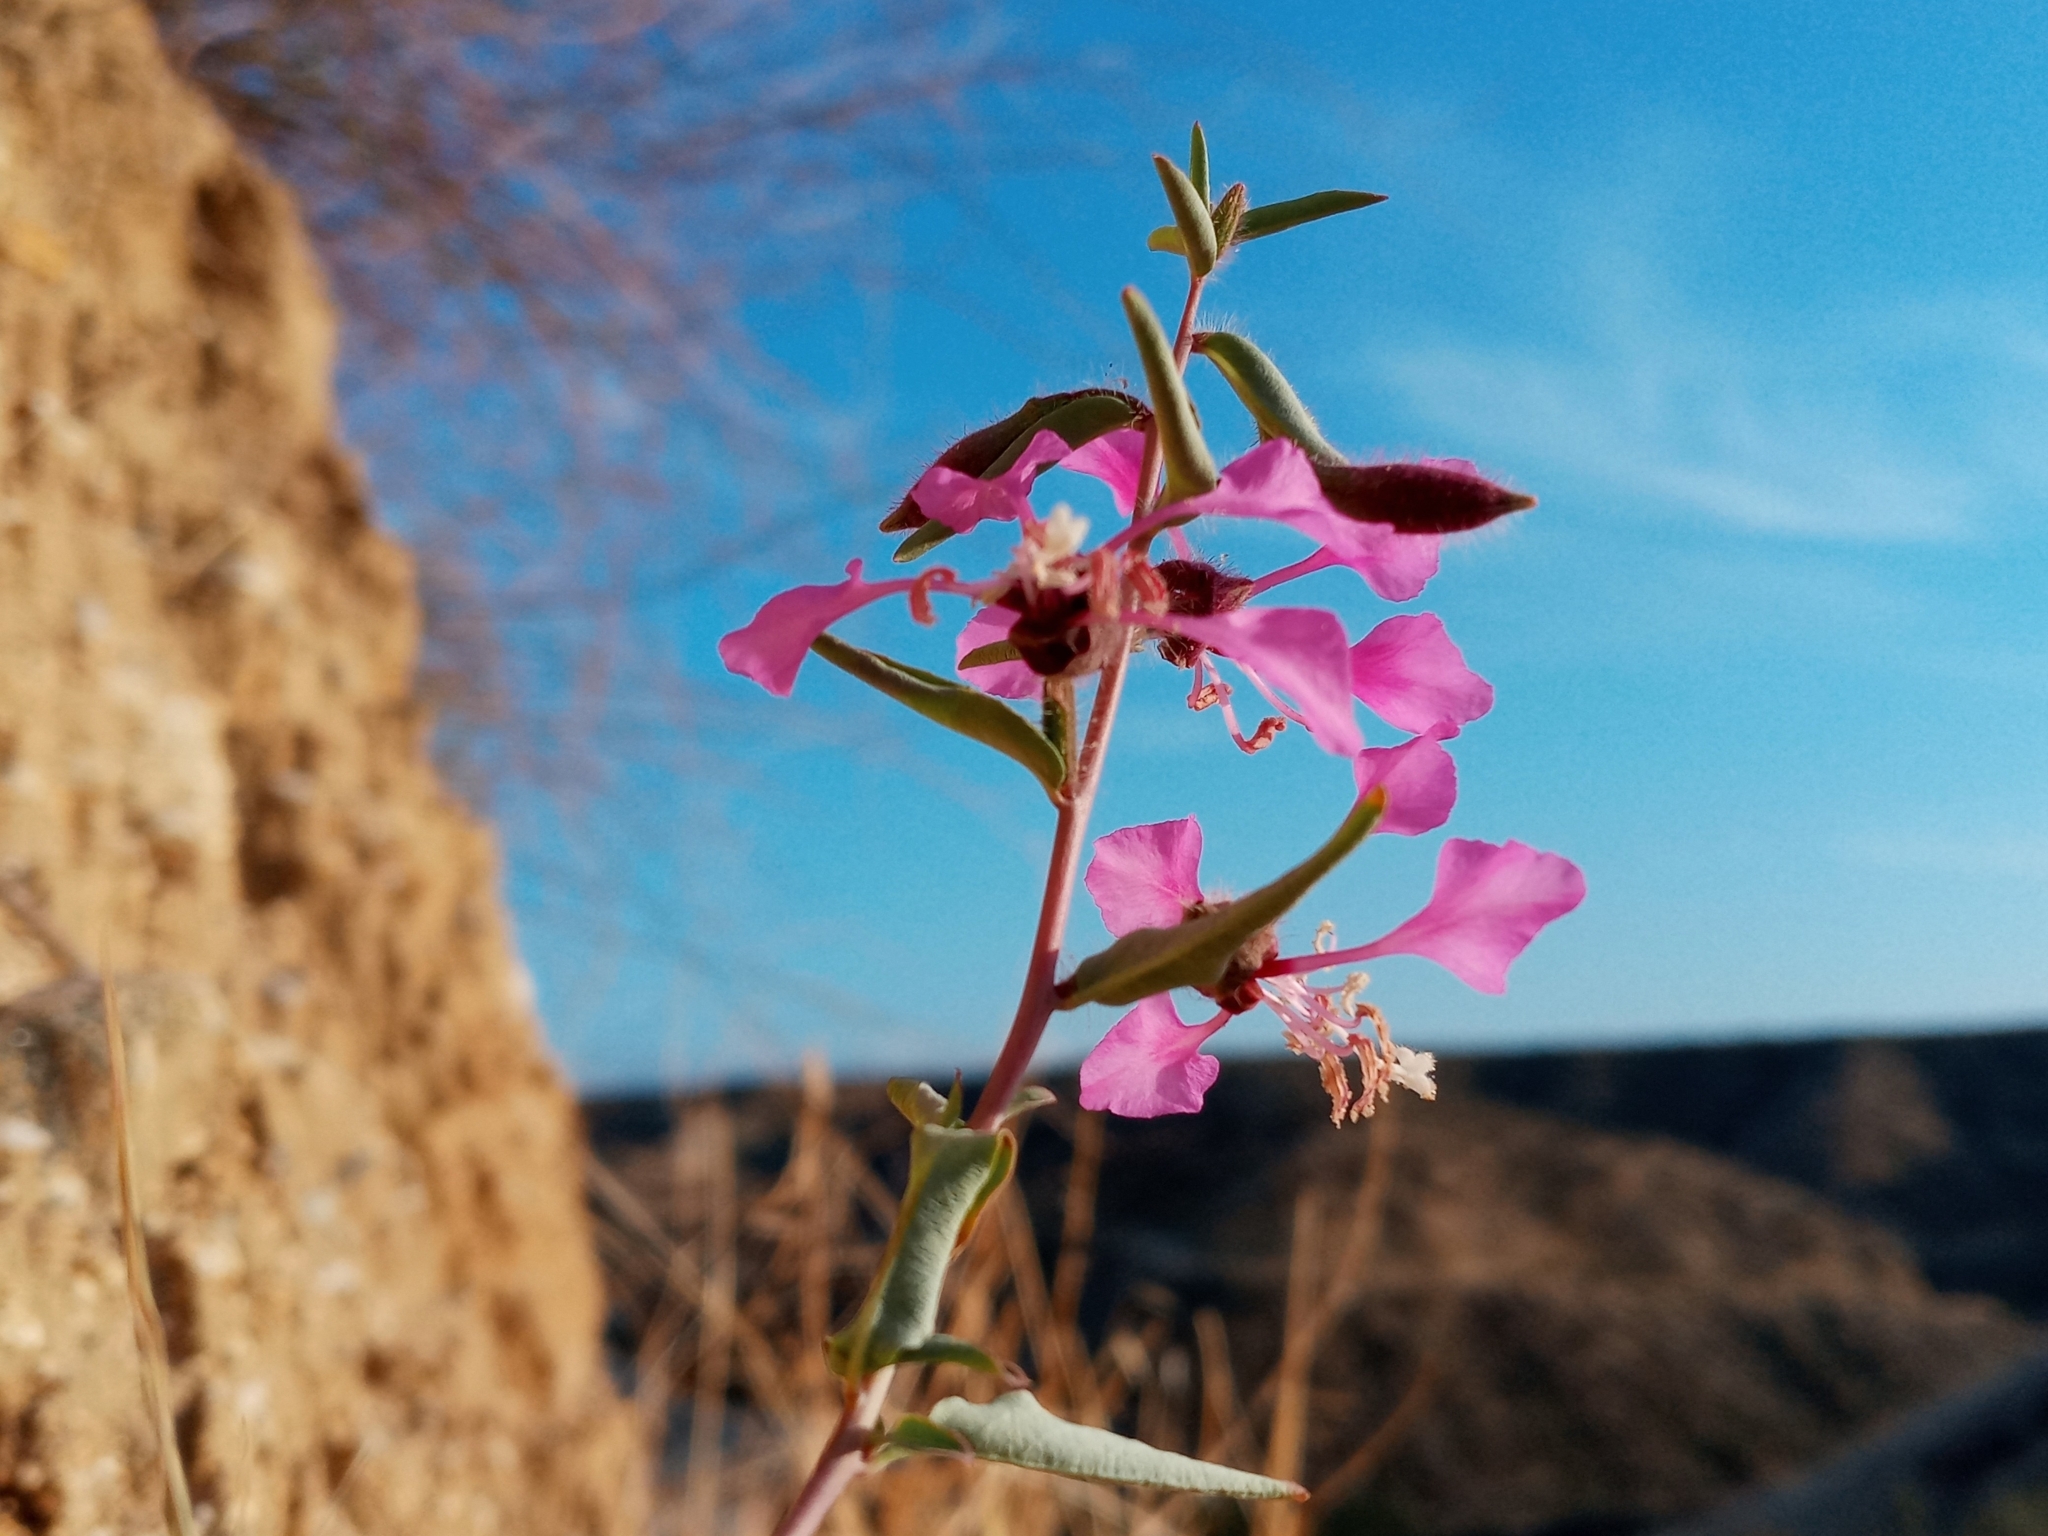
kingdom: Plantae
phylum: Tracheophyta
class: Magnoliopsida
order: Myrtales
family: Onagraceae
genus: Clarkia
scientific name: Clarkia unguiculata
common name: Clarkia
